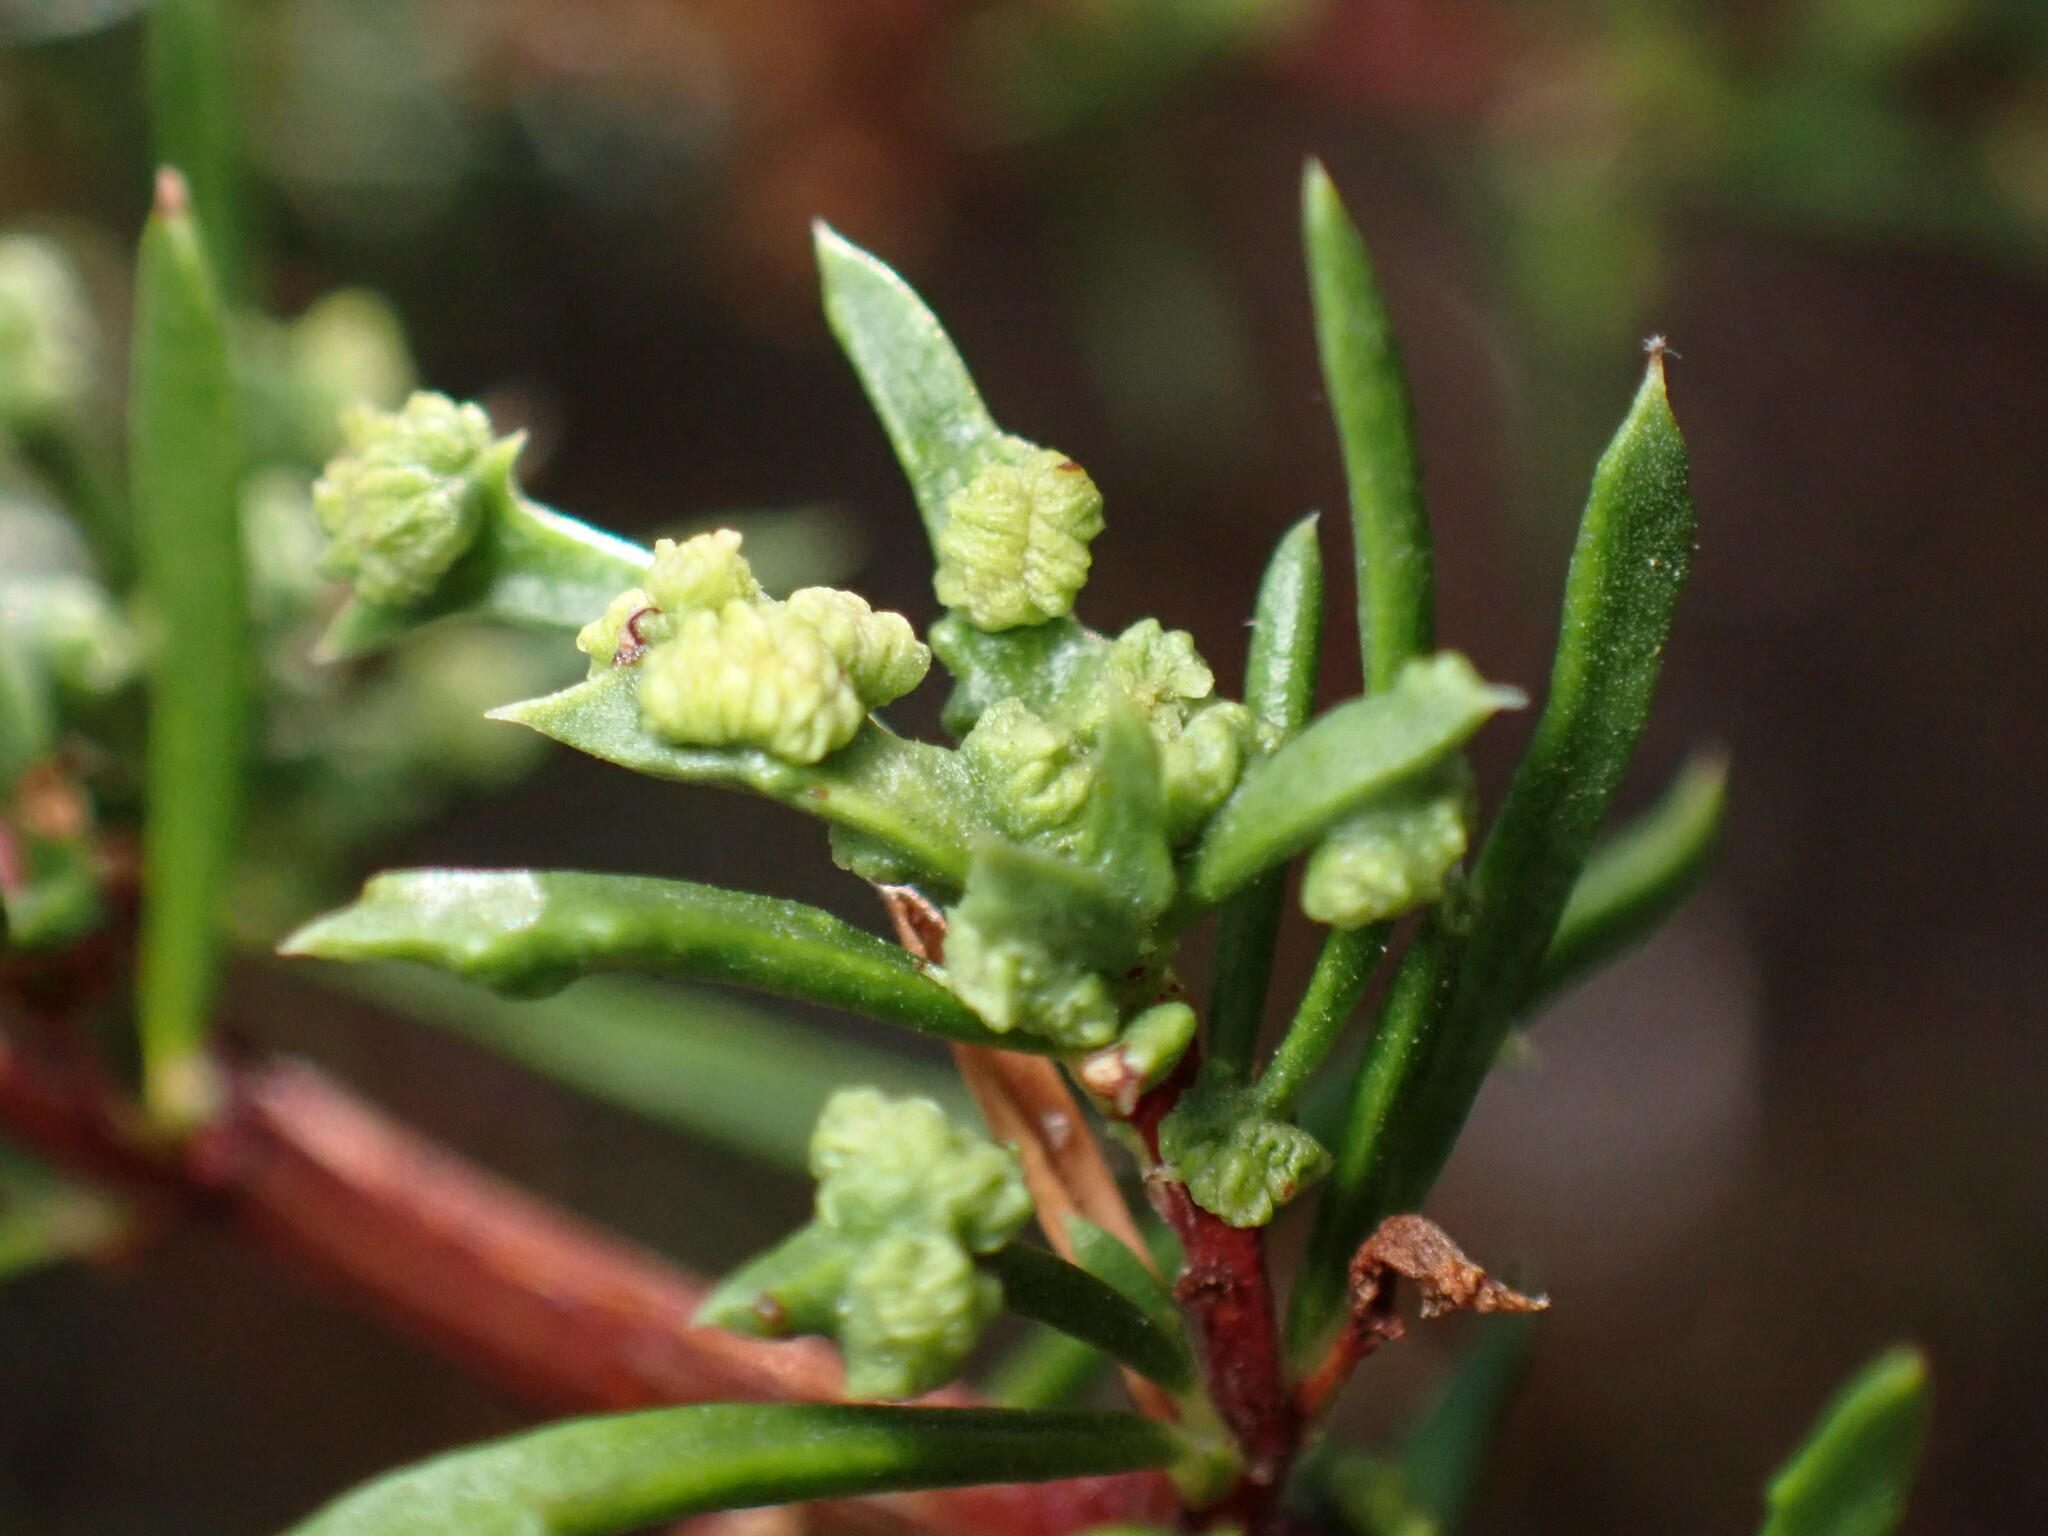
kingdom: Animalia
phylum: Arthropoda
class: Arachnida
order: Trombidiformes
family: Eriophyidae
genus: Eriophyes
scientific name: Eriophyes
